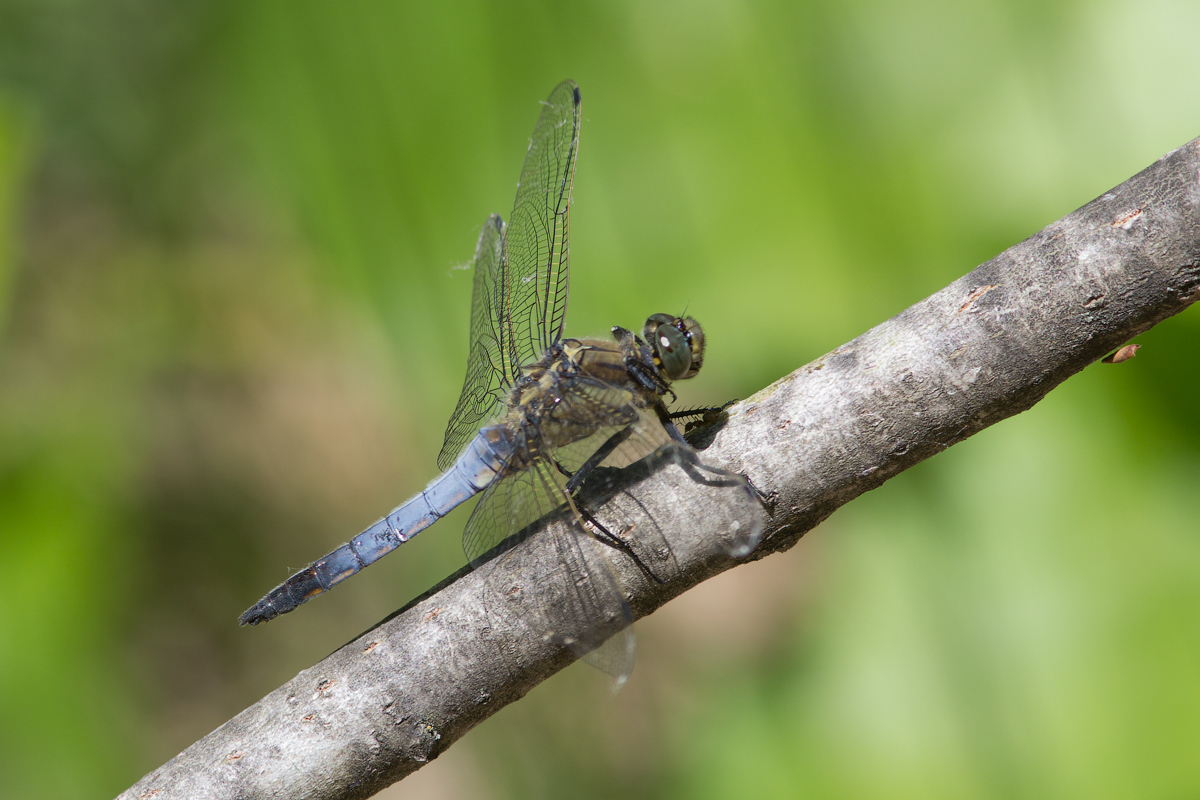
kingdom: Animalia
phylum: Arthropoda
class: Insecta
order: Odonata
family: Libellulidae
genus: Orthetrum
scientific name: Orthetrum cancellatum
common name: Black-tailed skimmer
